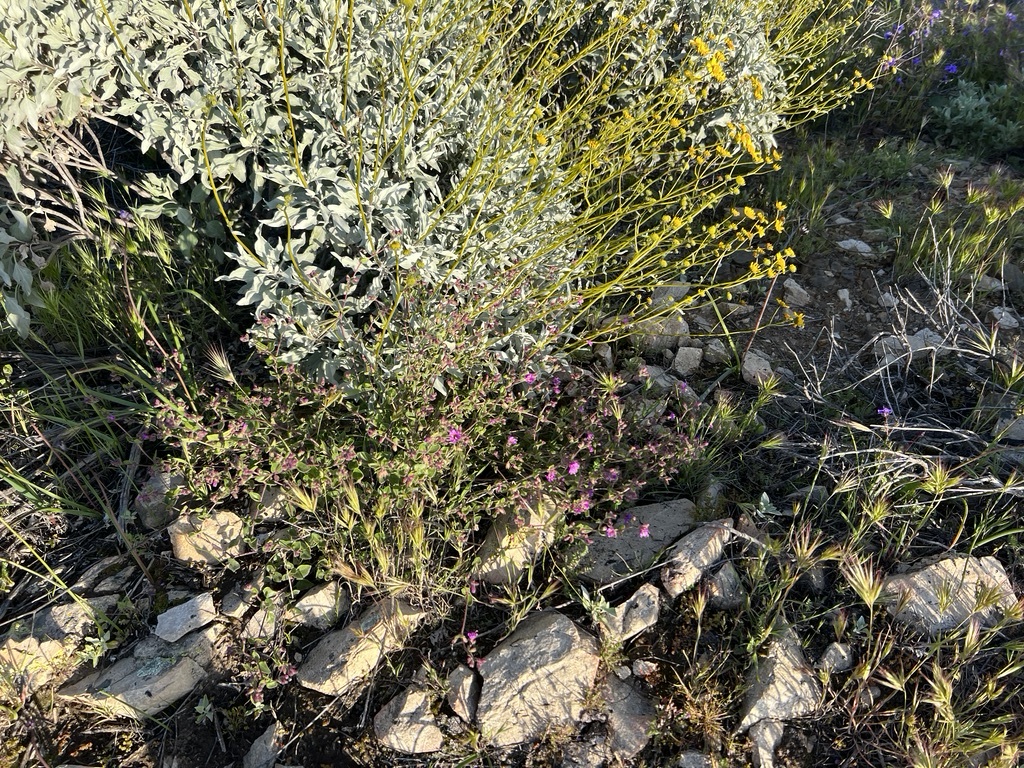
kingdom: Plantae
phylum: Tracheophyta
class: Magnoliopsida
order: Caryophyllales
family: Nyctaginaceae
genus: Mirabilis
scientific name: Mirabilis laevis
